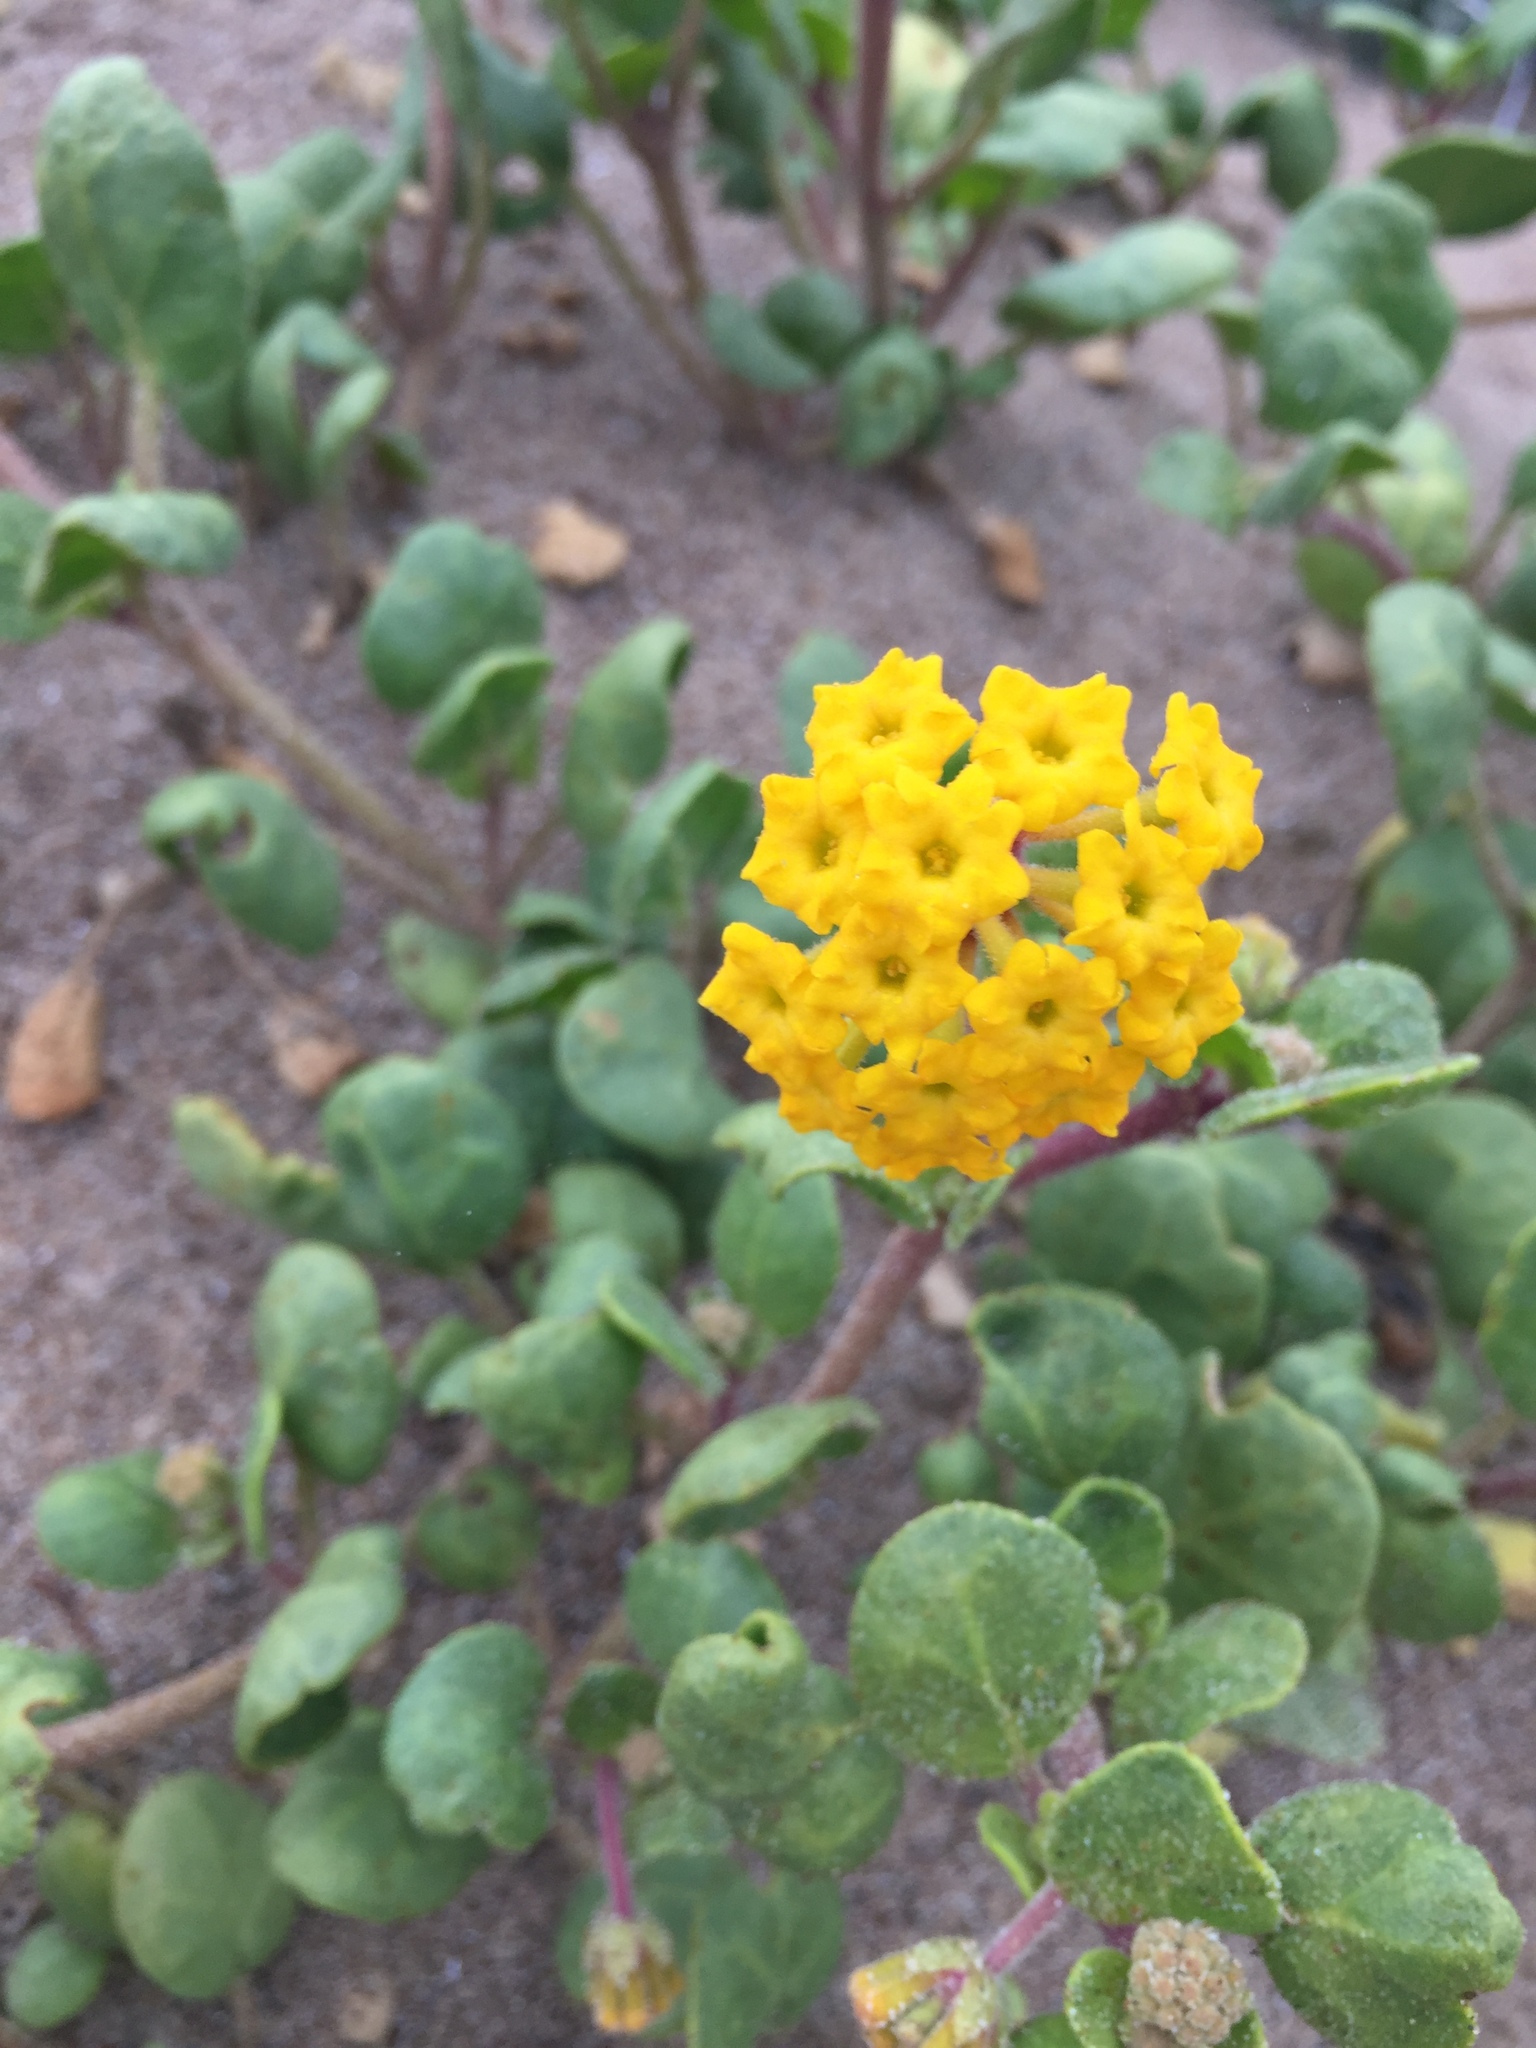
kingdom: Plantae
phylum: Tracheophyta
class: Magnoliopsida
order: Caryophyllales
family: Nyctaginaceae
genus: Abronia
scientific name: Abronia latifolia
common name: Yellow sand-verbena
